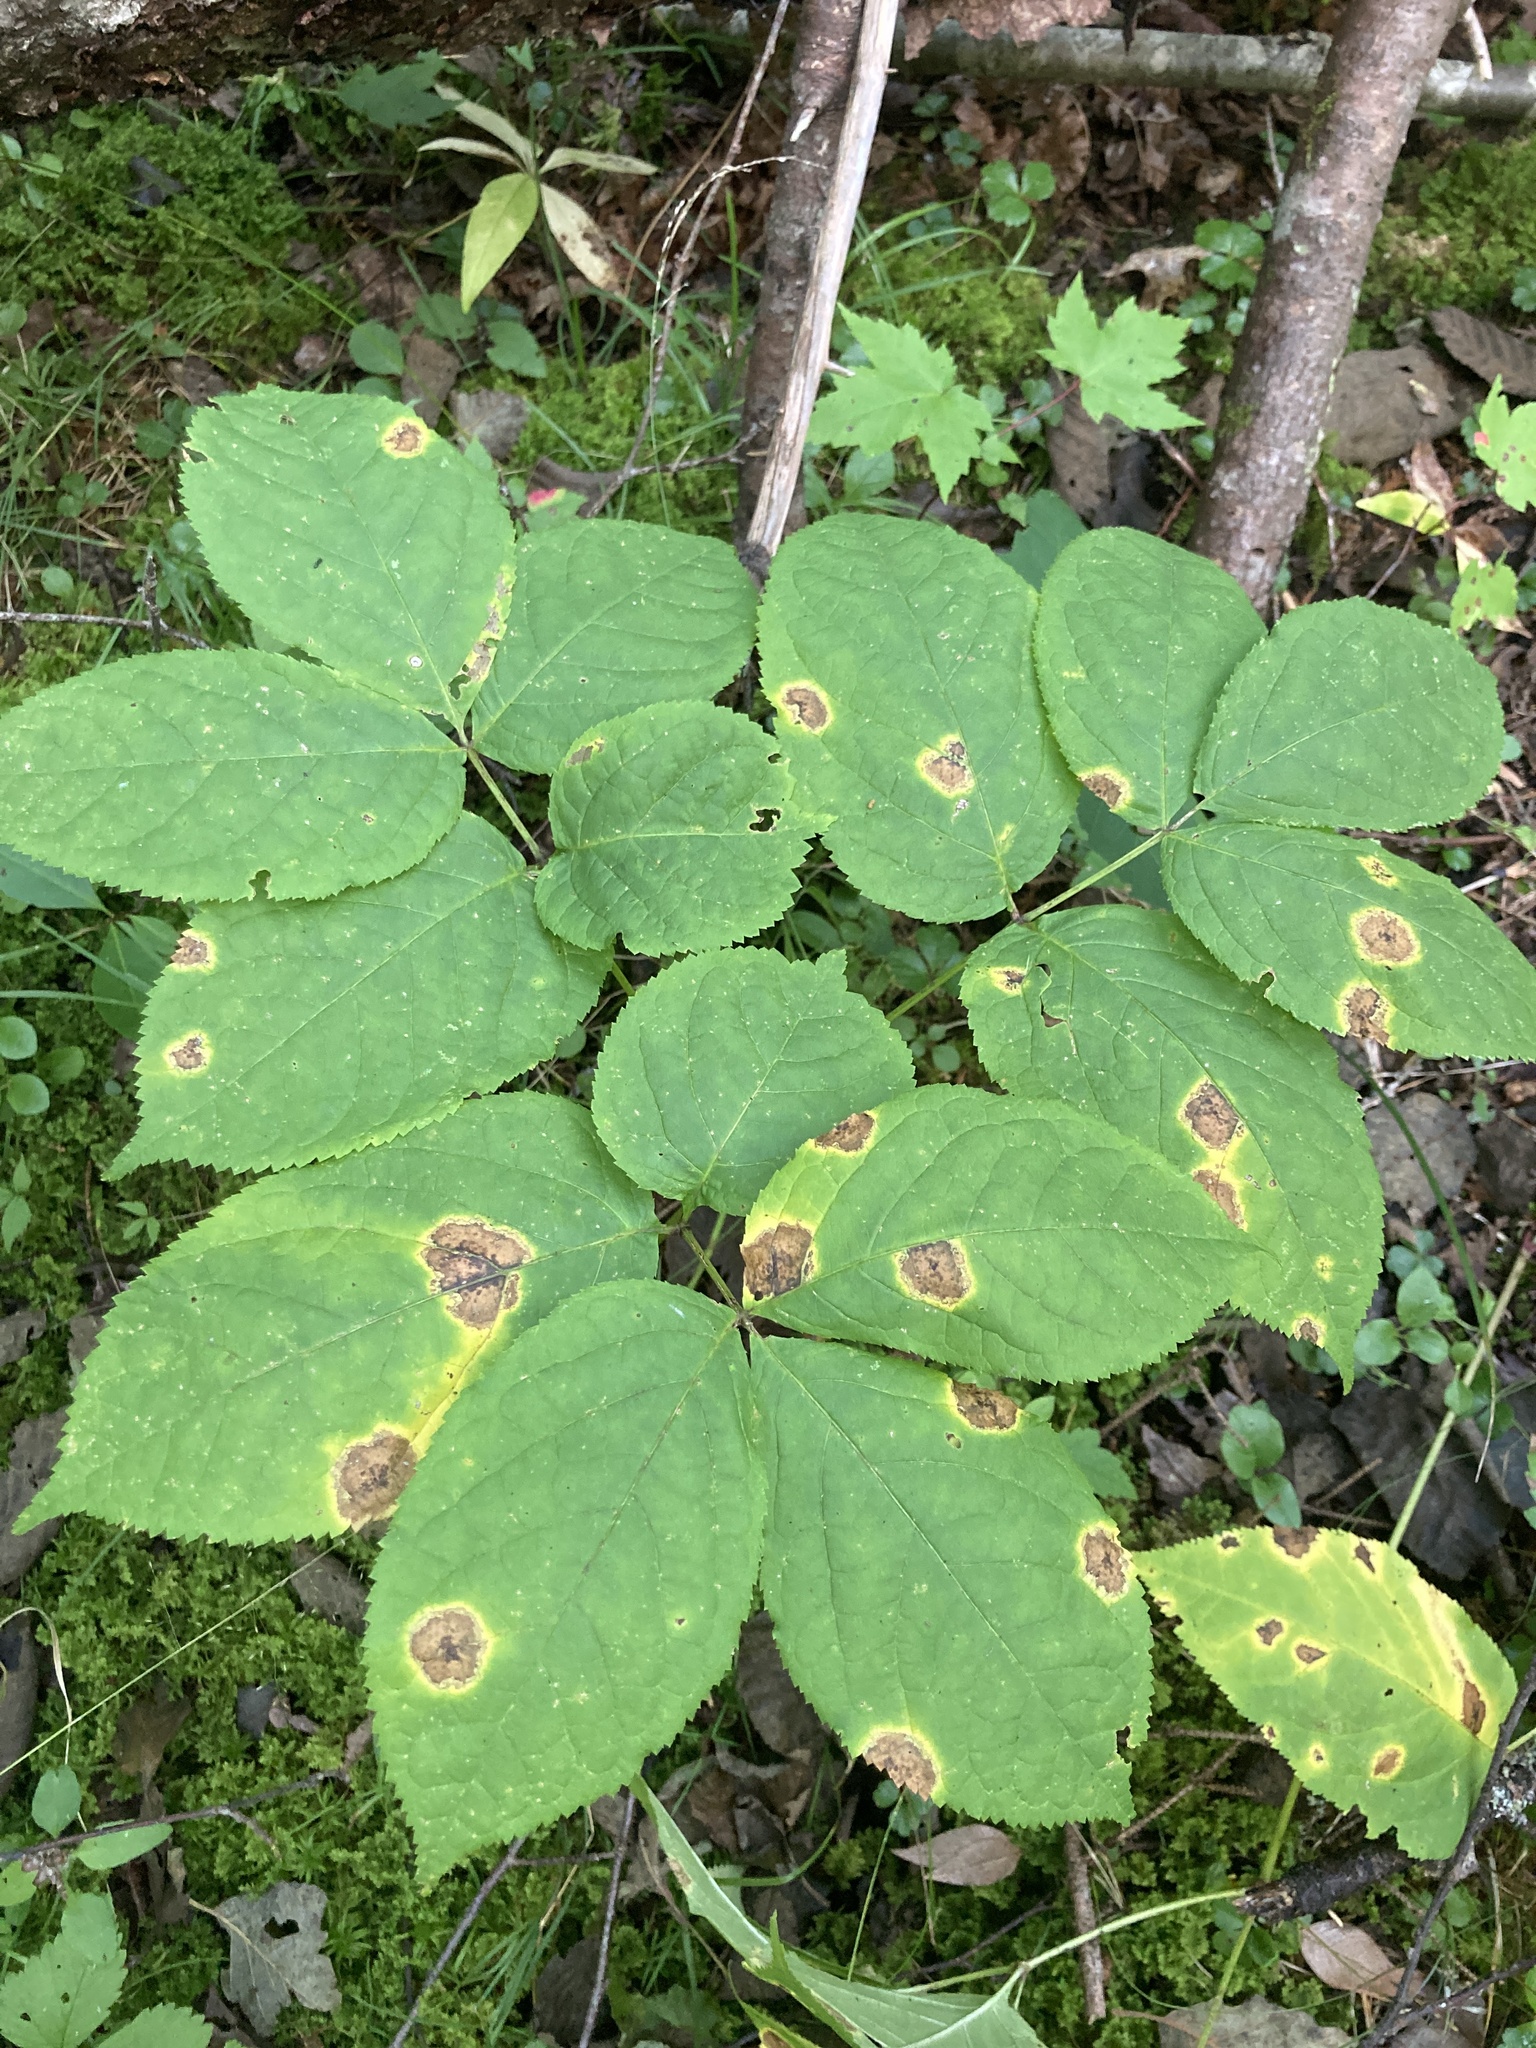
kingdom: Plantae
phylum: Tracheophyta
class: Magnoliopsida
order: Apiales
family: Araliaceae
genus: Aralia
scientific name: Aralia nudicaulis
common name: Wild sarsaparilla
